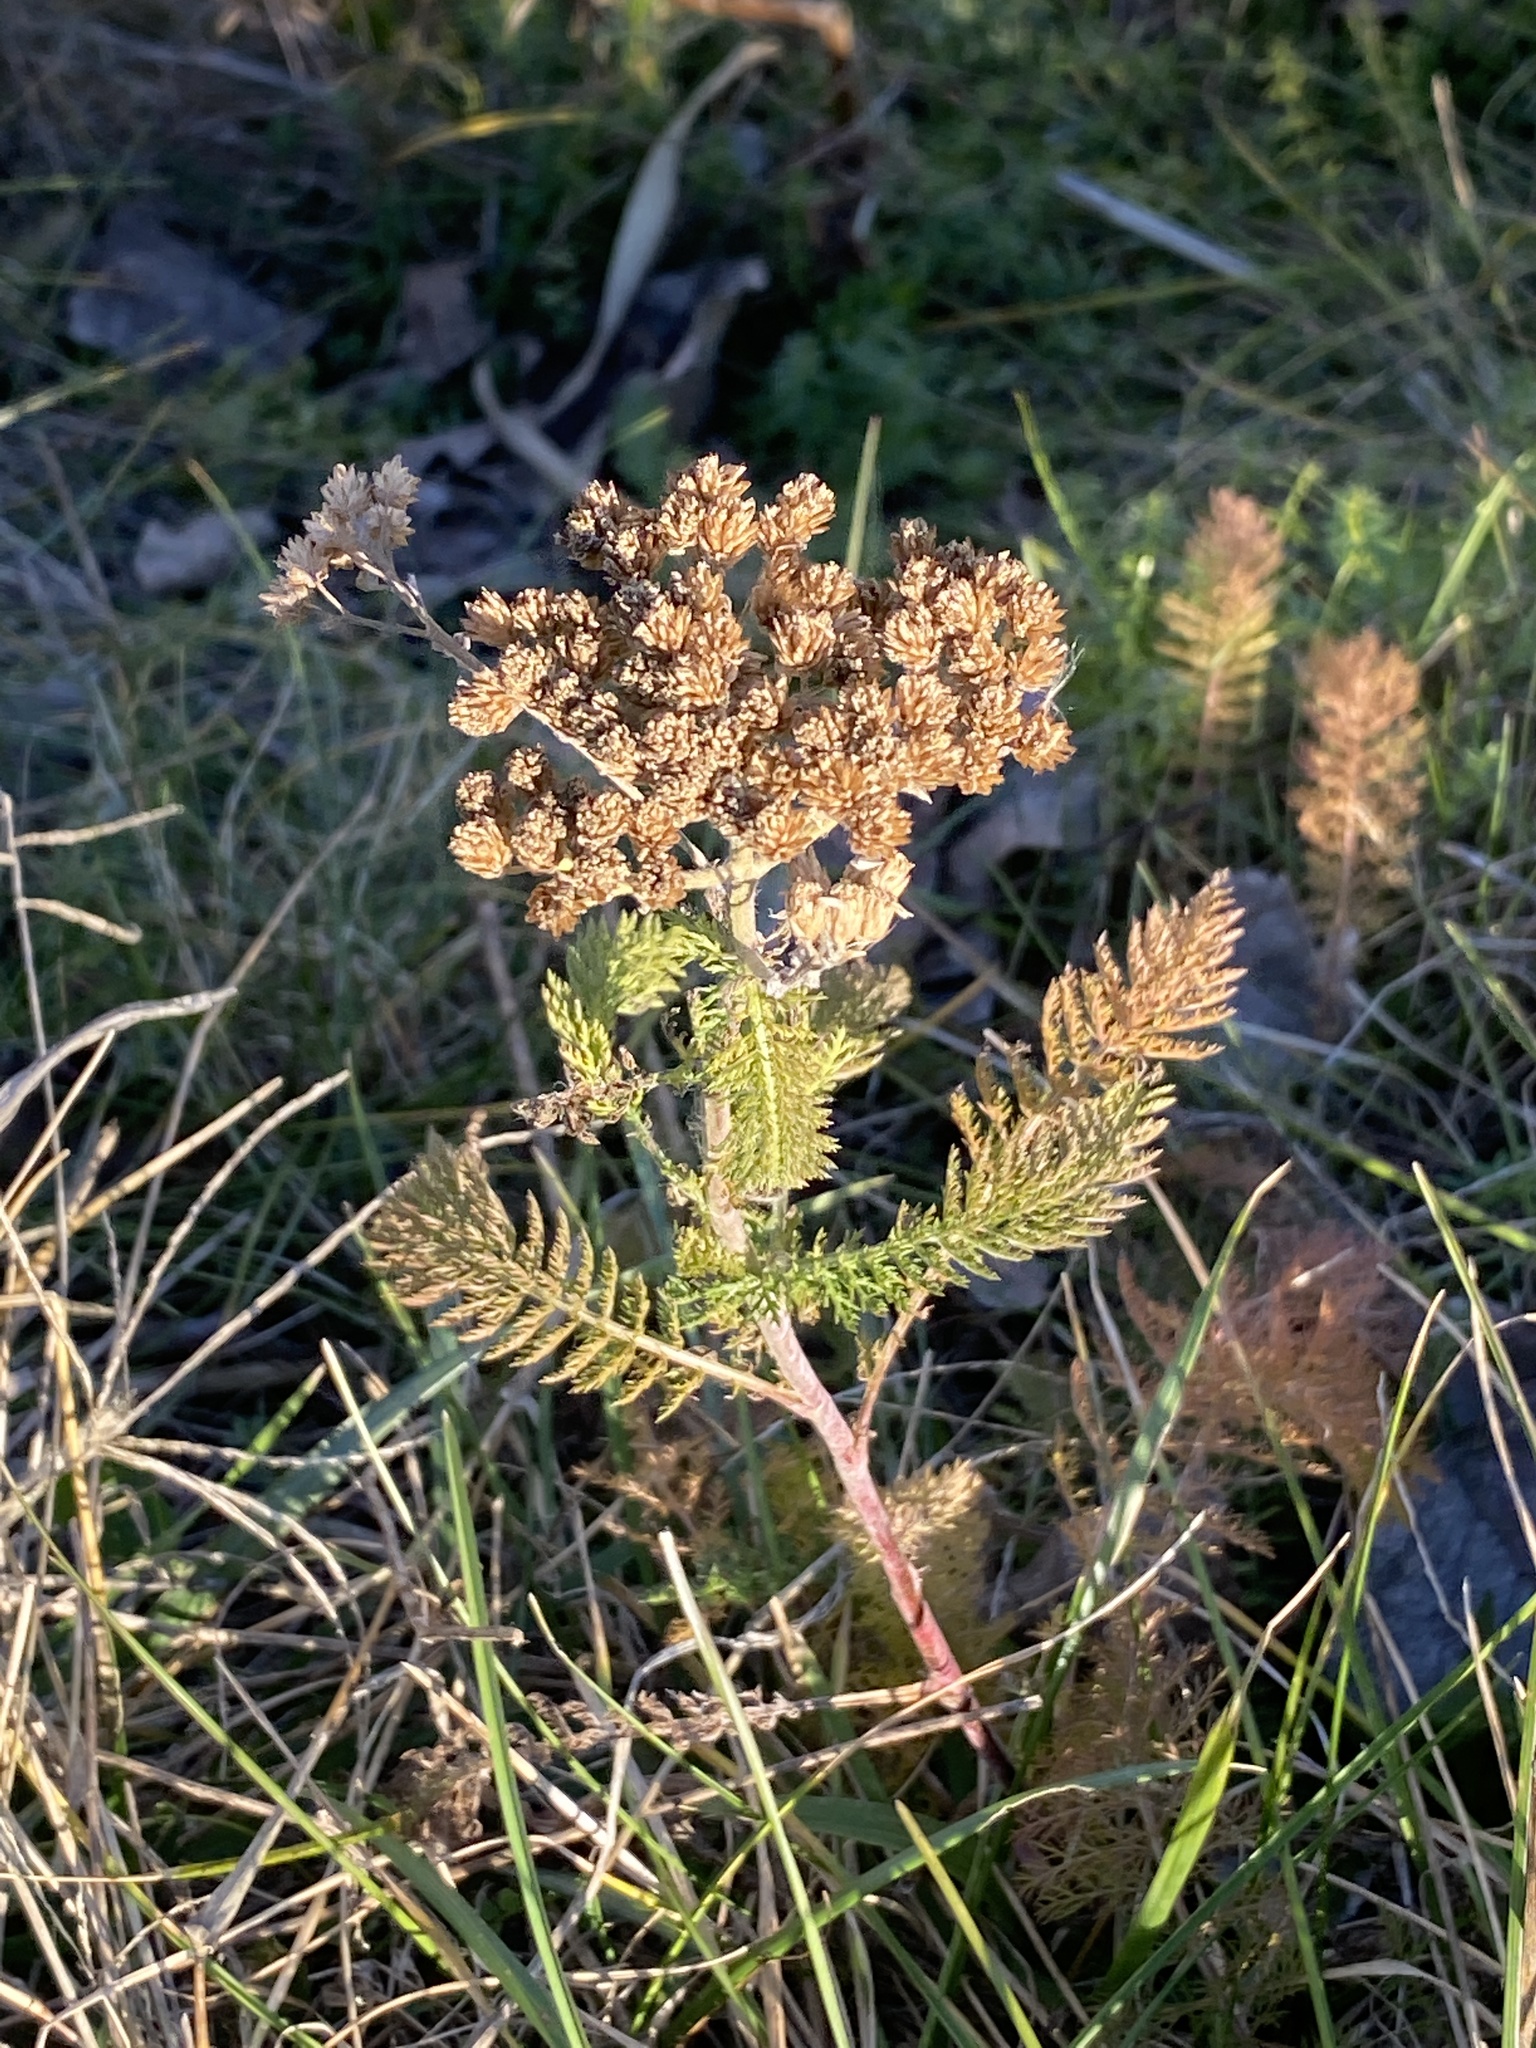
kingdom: Plantae
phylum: Tracheophyta
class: Magnoliopsida
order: Asterales
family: Asteraceae
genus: Achillea
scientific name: Achillea millefolium
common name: Yarrow
